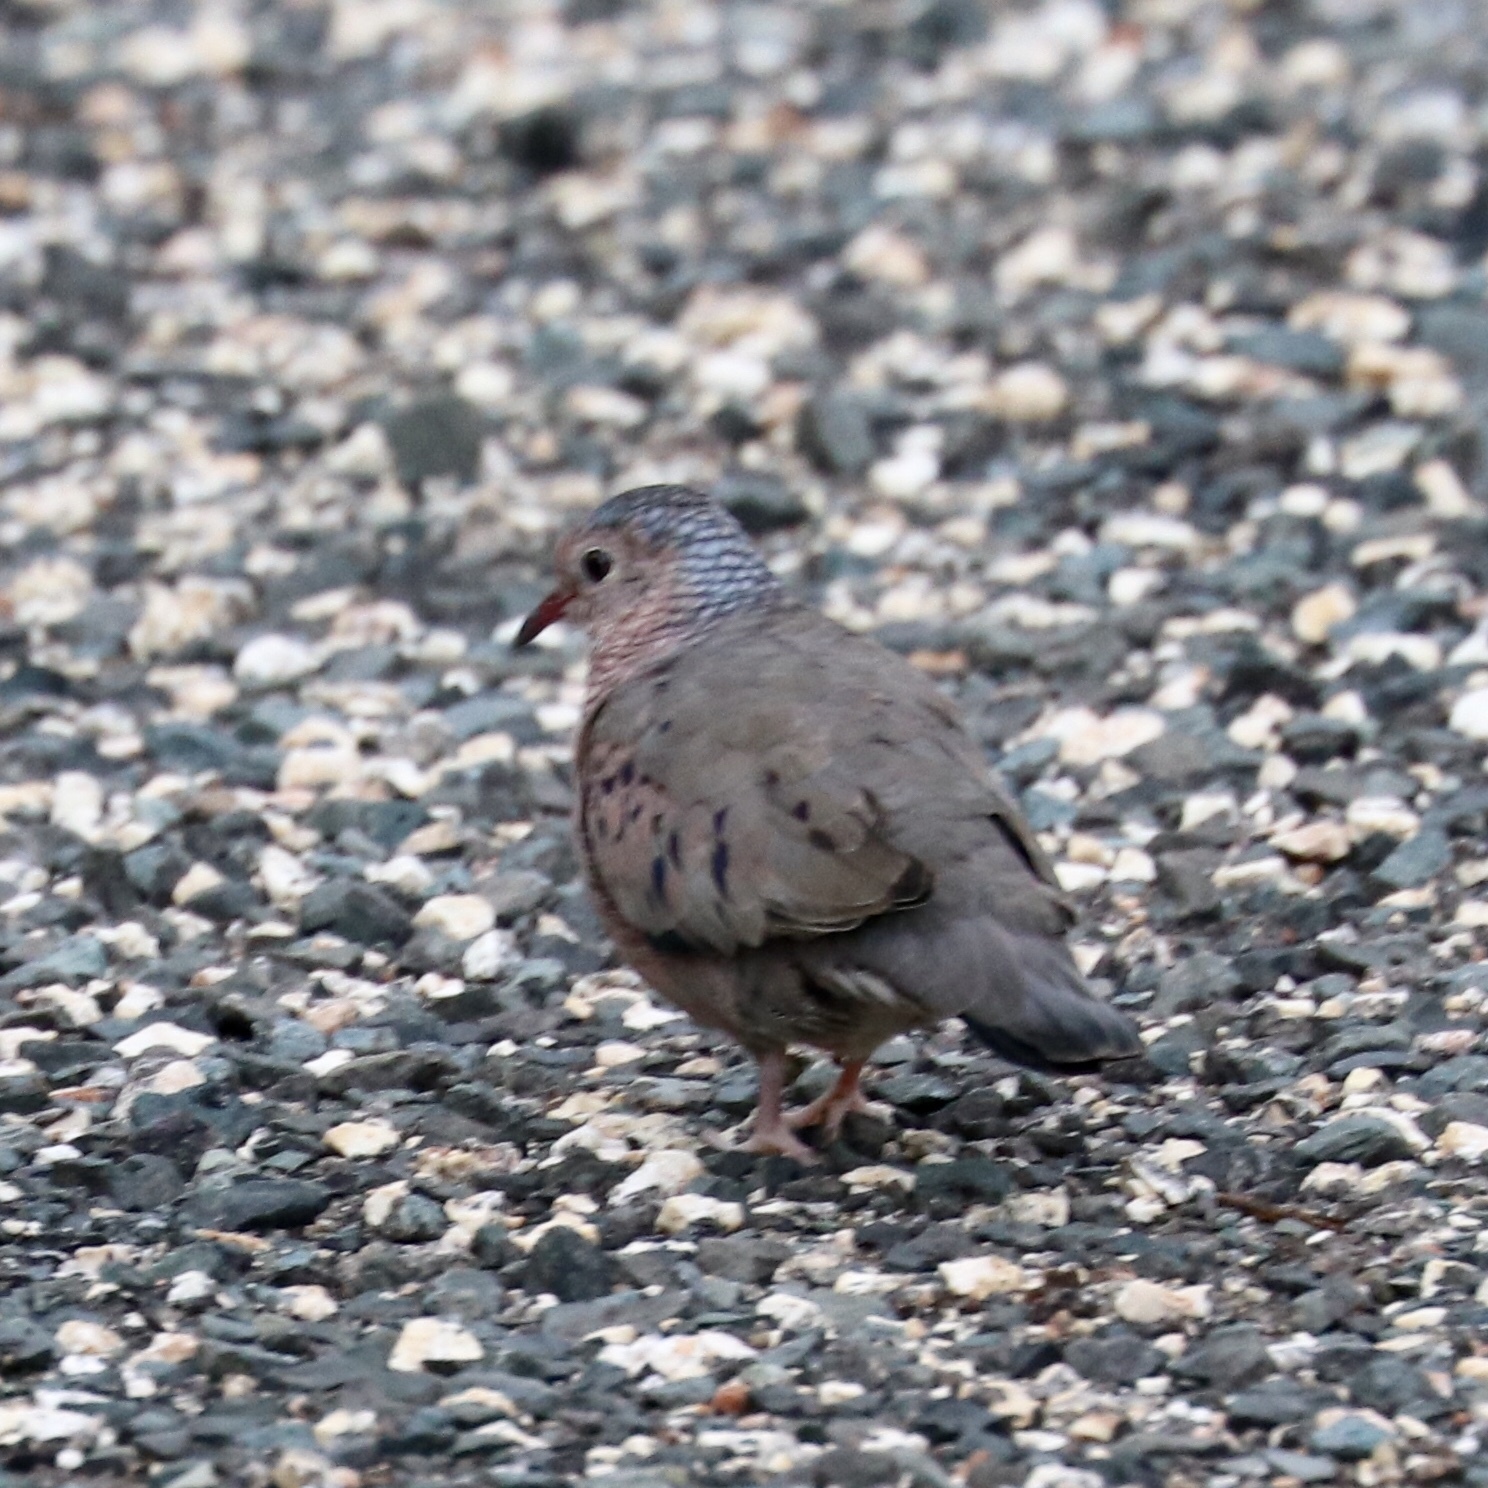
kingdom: Animalia
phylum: Chordata
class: Aves
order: Columbiformes
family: Columbidae
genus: Columbina
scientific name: Columbina passerina
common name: Common ground-dove
